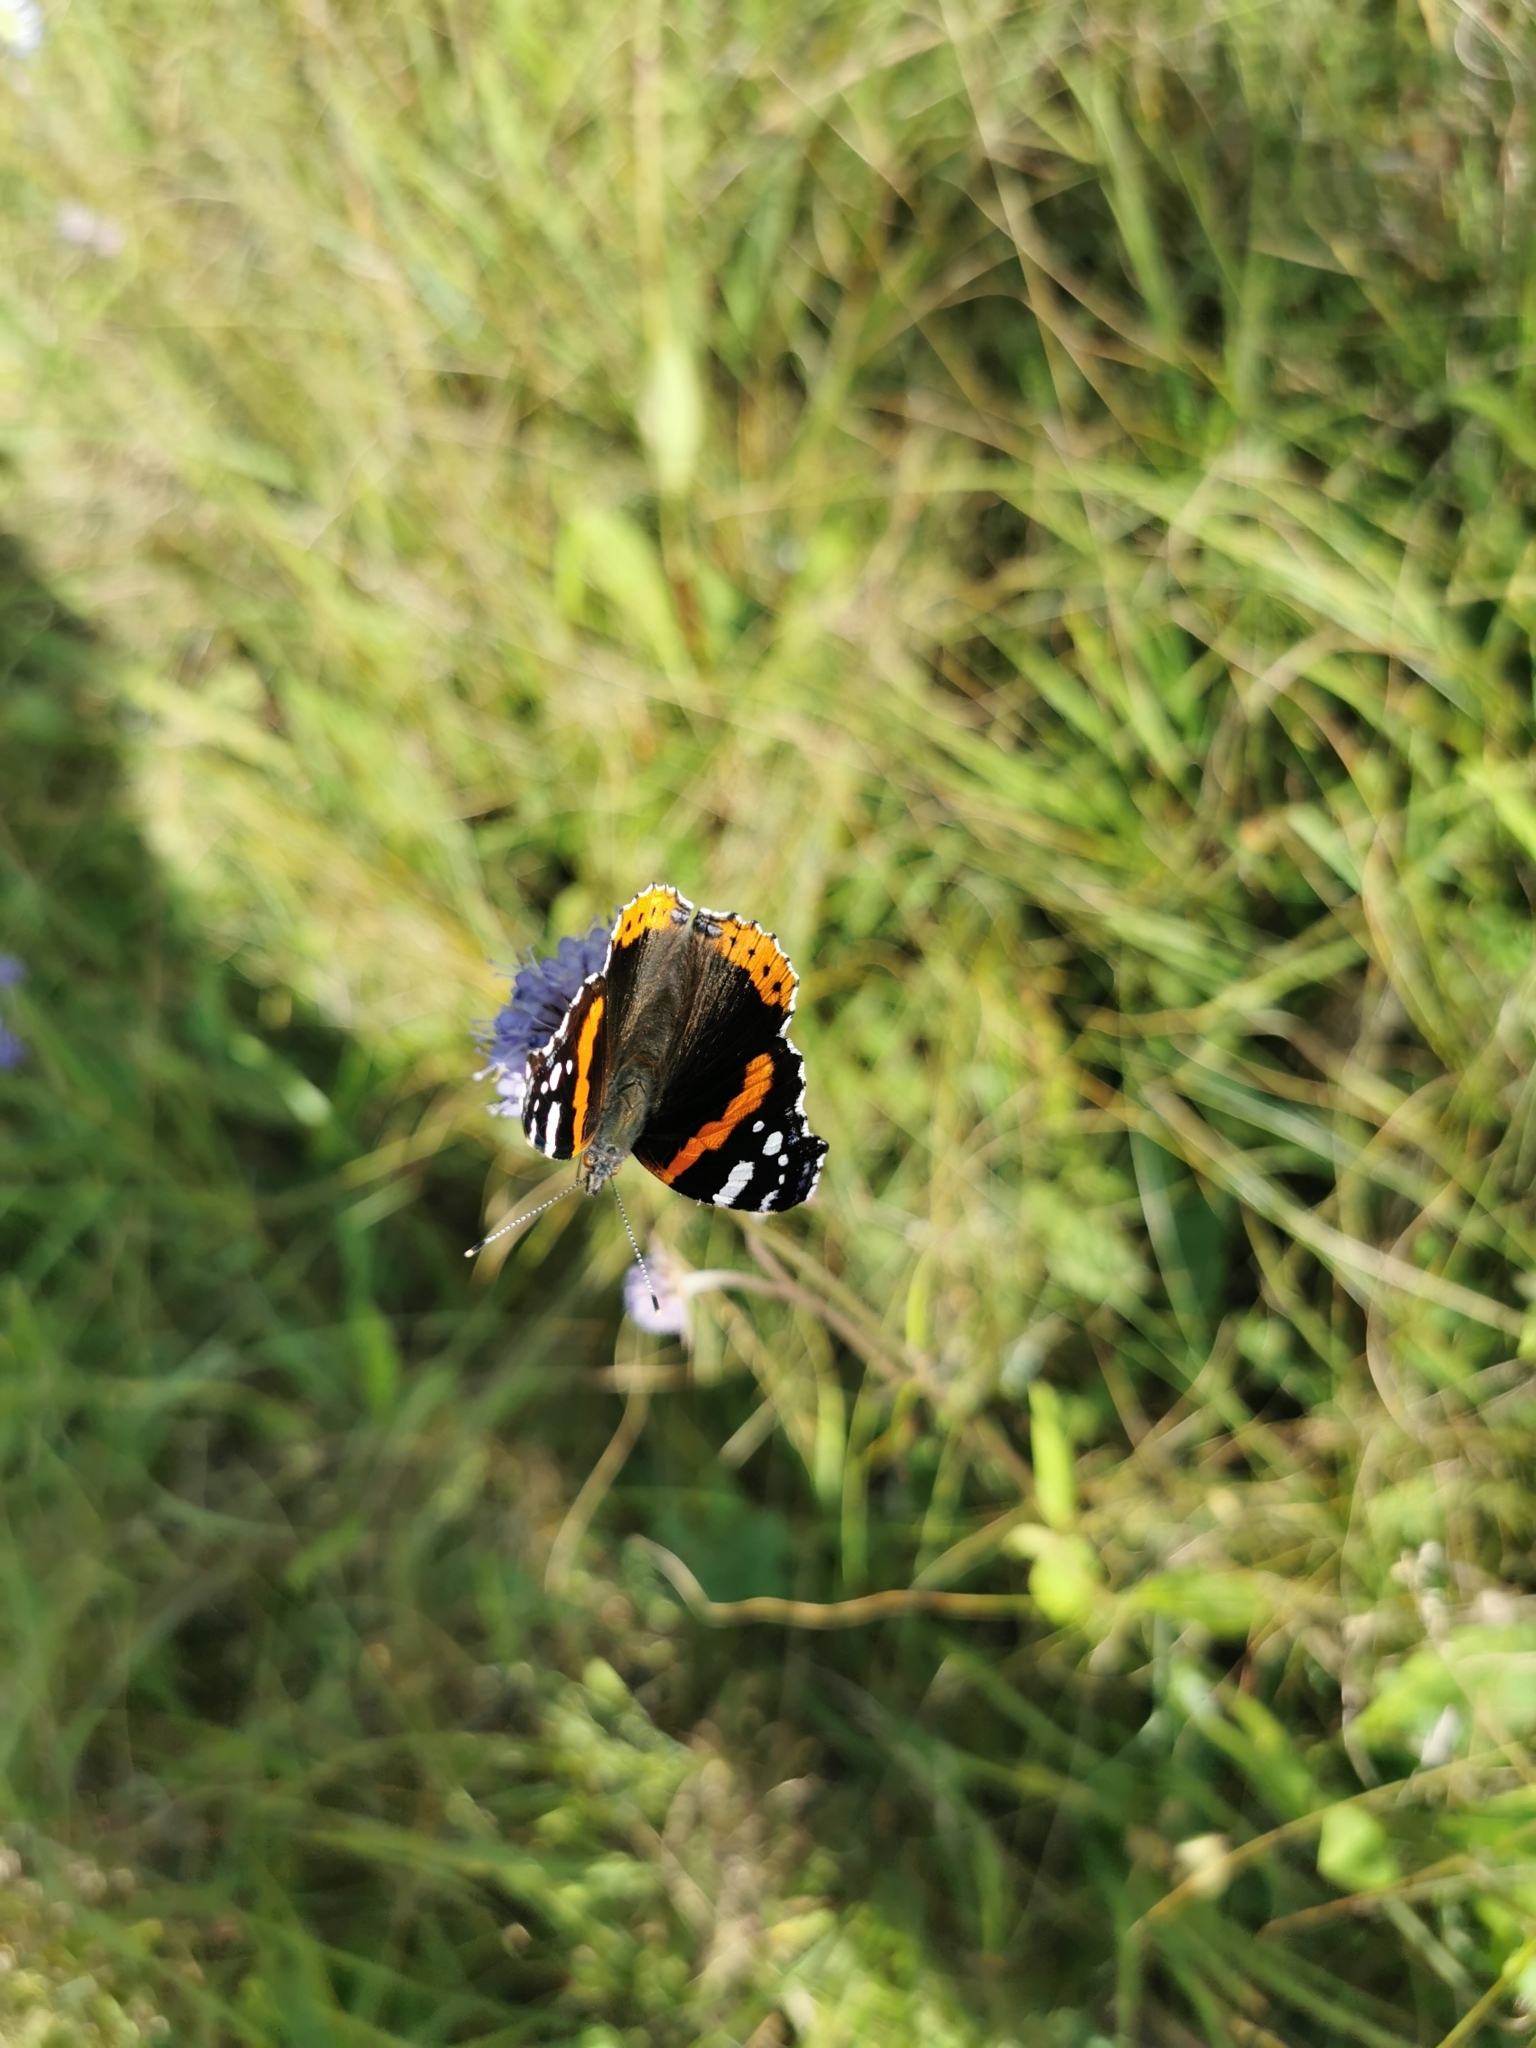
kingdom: Animalia
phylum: Arthropoda
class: Insecta
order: Lepidoptera
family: Nymphalidae
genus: Vanessa
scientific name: Vanessa atalanta
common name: Red admiral
